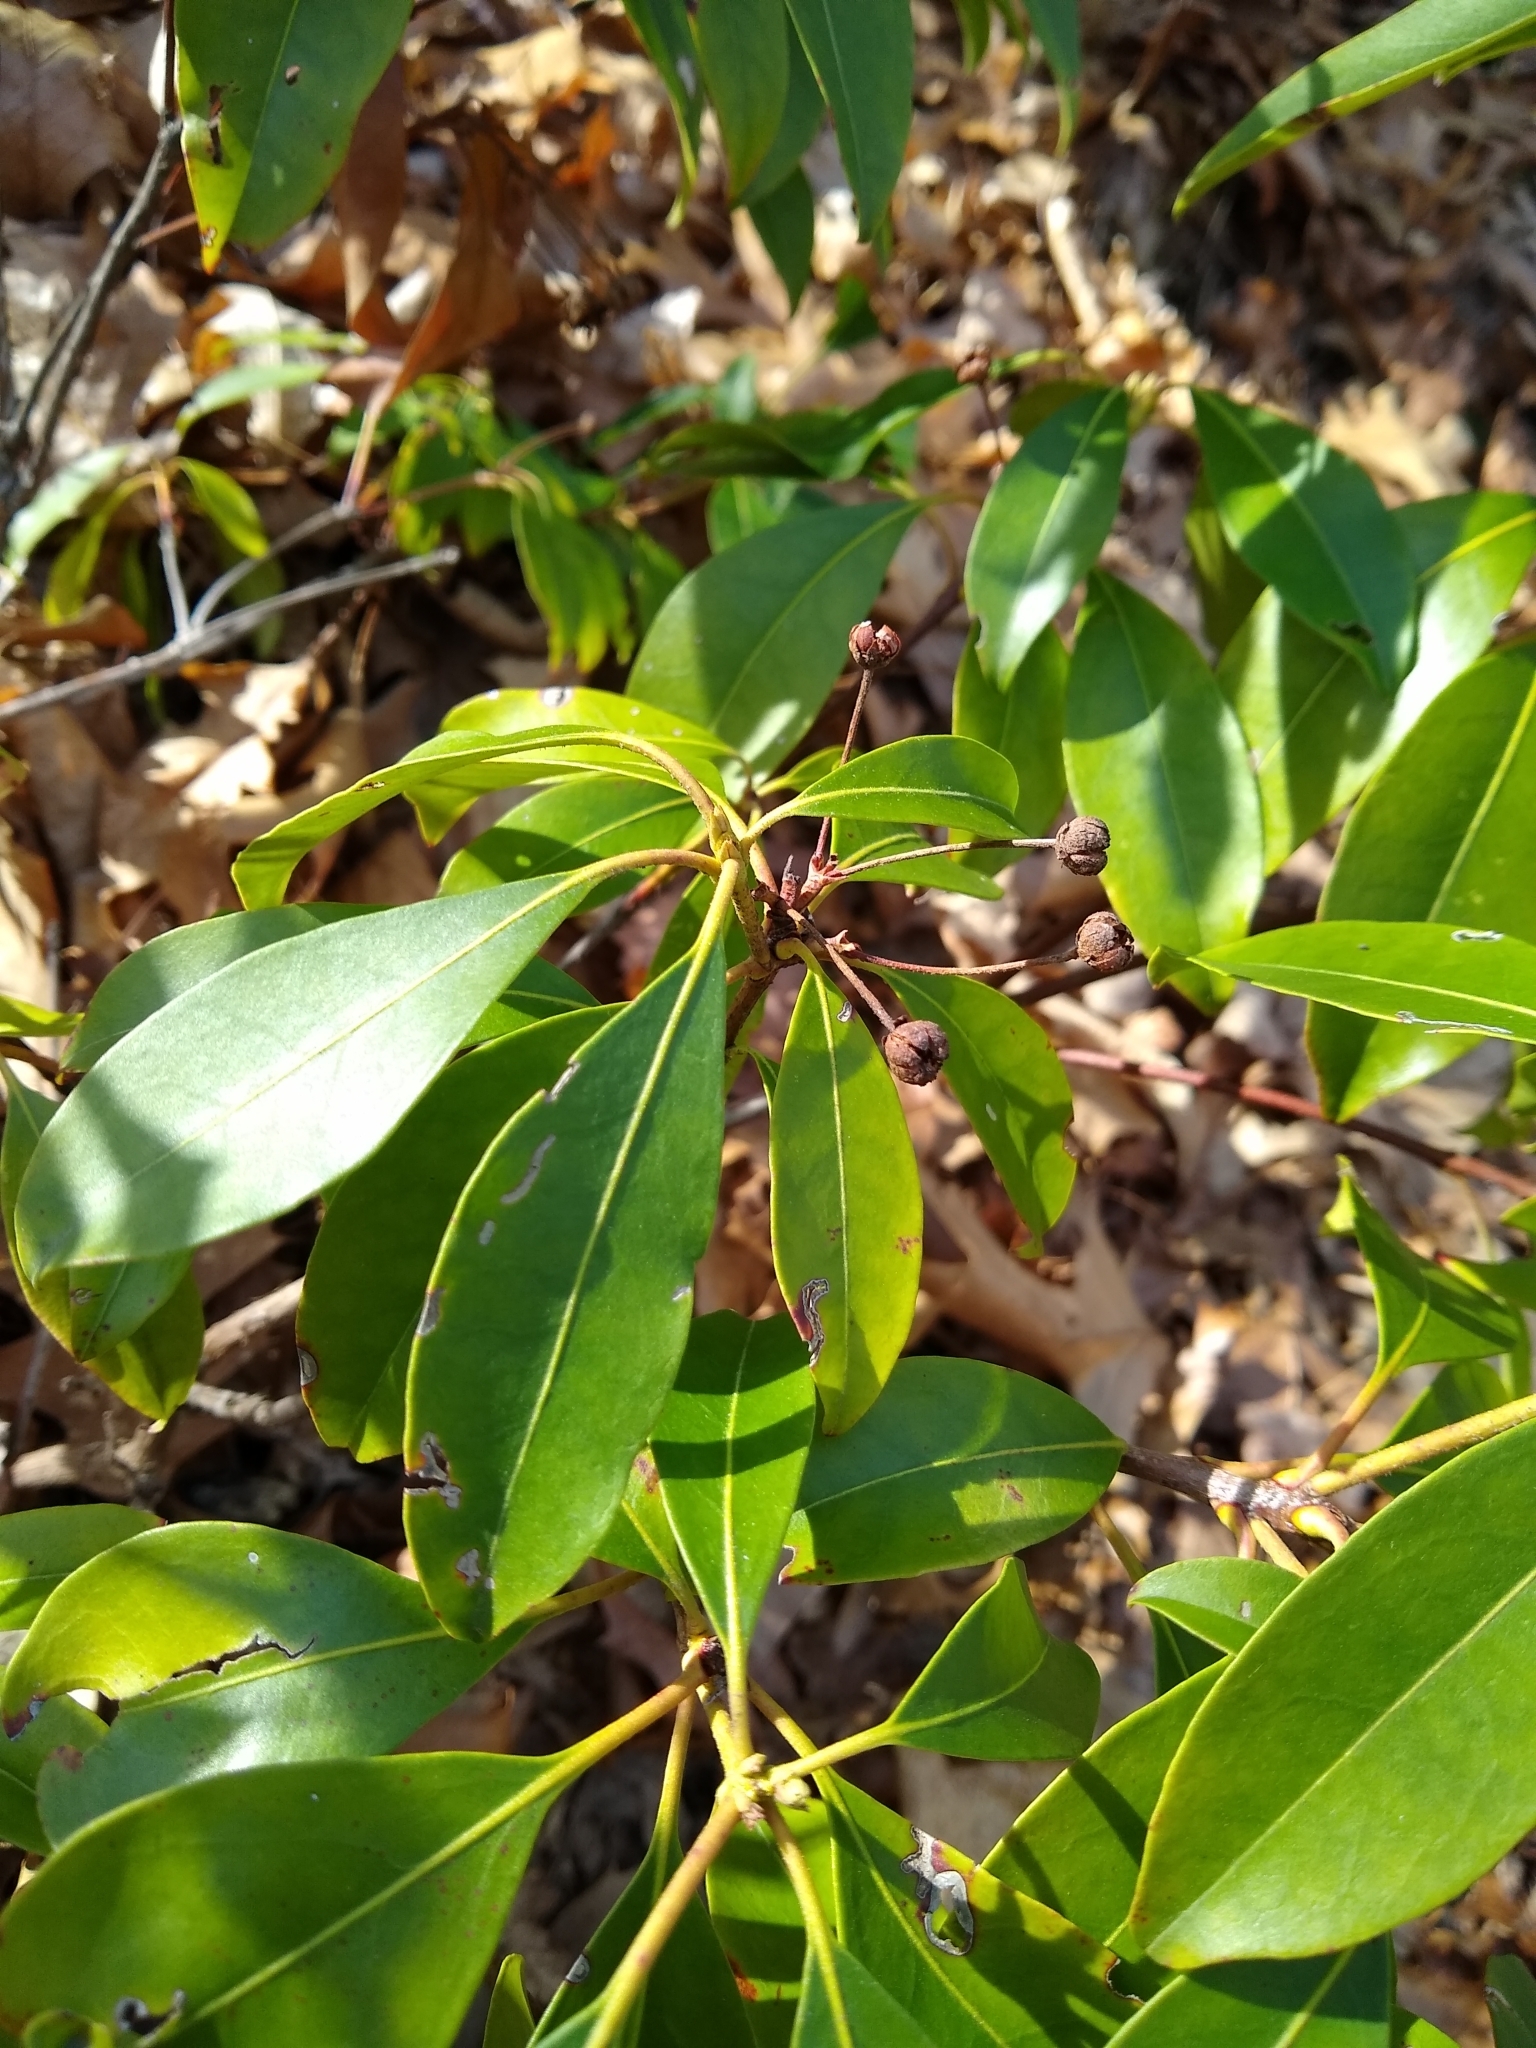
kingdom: Plantae
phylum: Tracheophyta
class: Magnoliopsida
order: Ericales
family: Ericaceae
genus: Kalmia
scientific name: Kalmia latifolia
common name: Mountain-laurel
